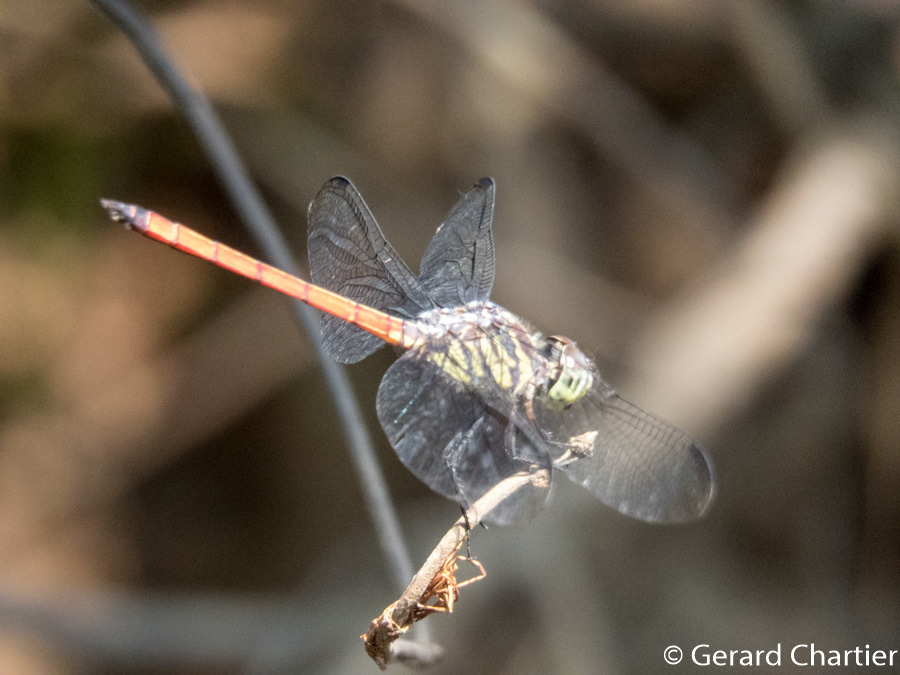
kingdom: Animalia
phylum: Arthropoda
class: Insecta
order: Odonata
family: Libellulidae
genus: Lathrecista
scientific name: Lathrecista asiatica
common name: Scarlet grenadier
